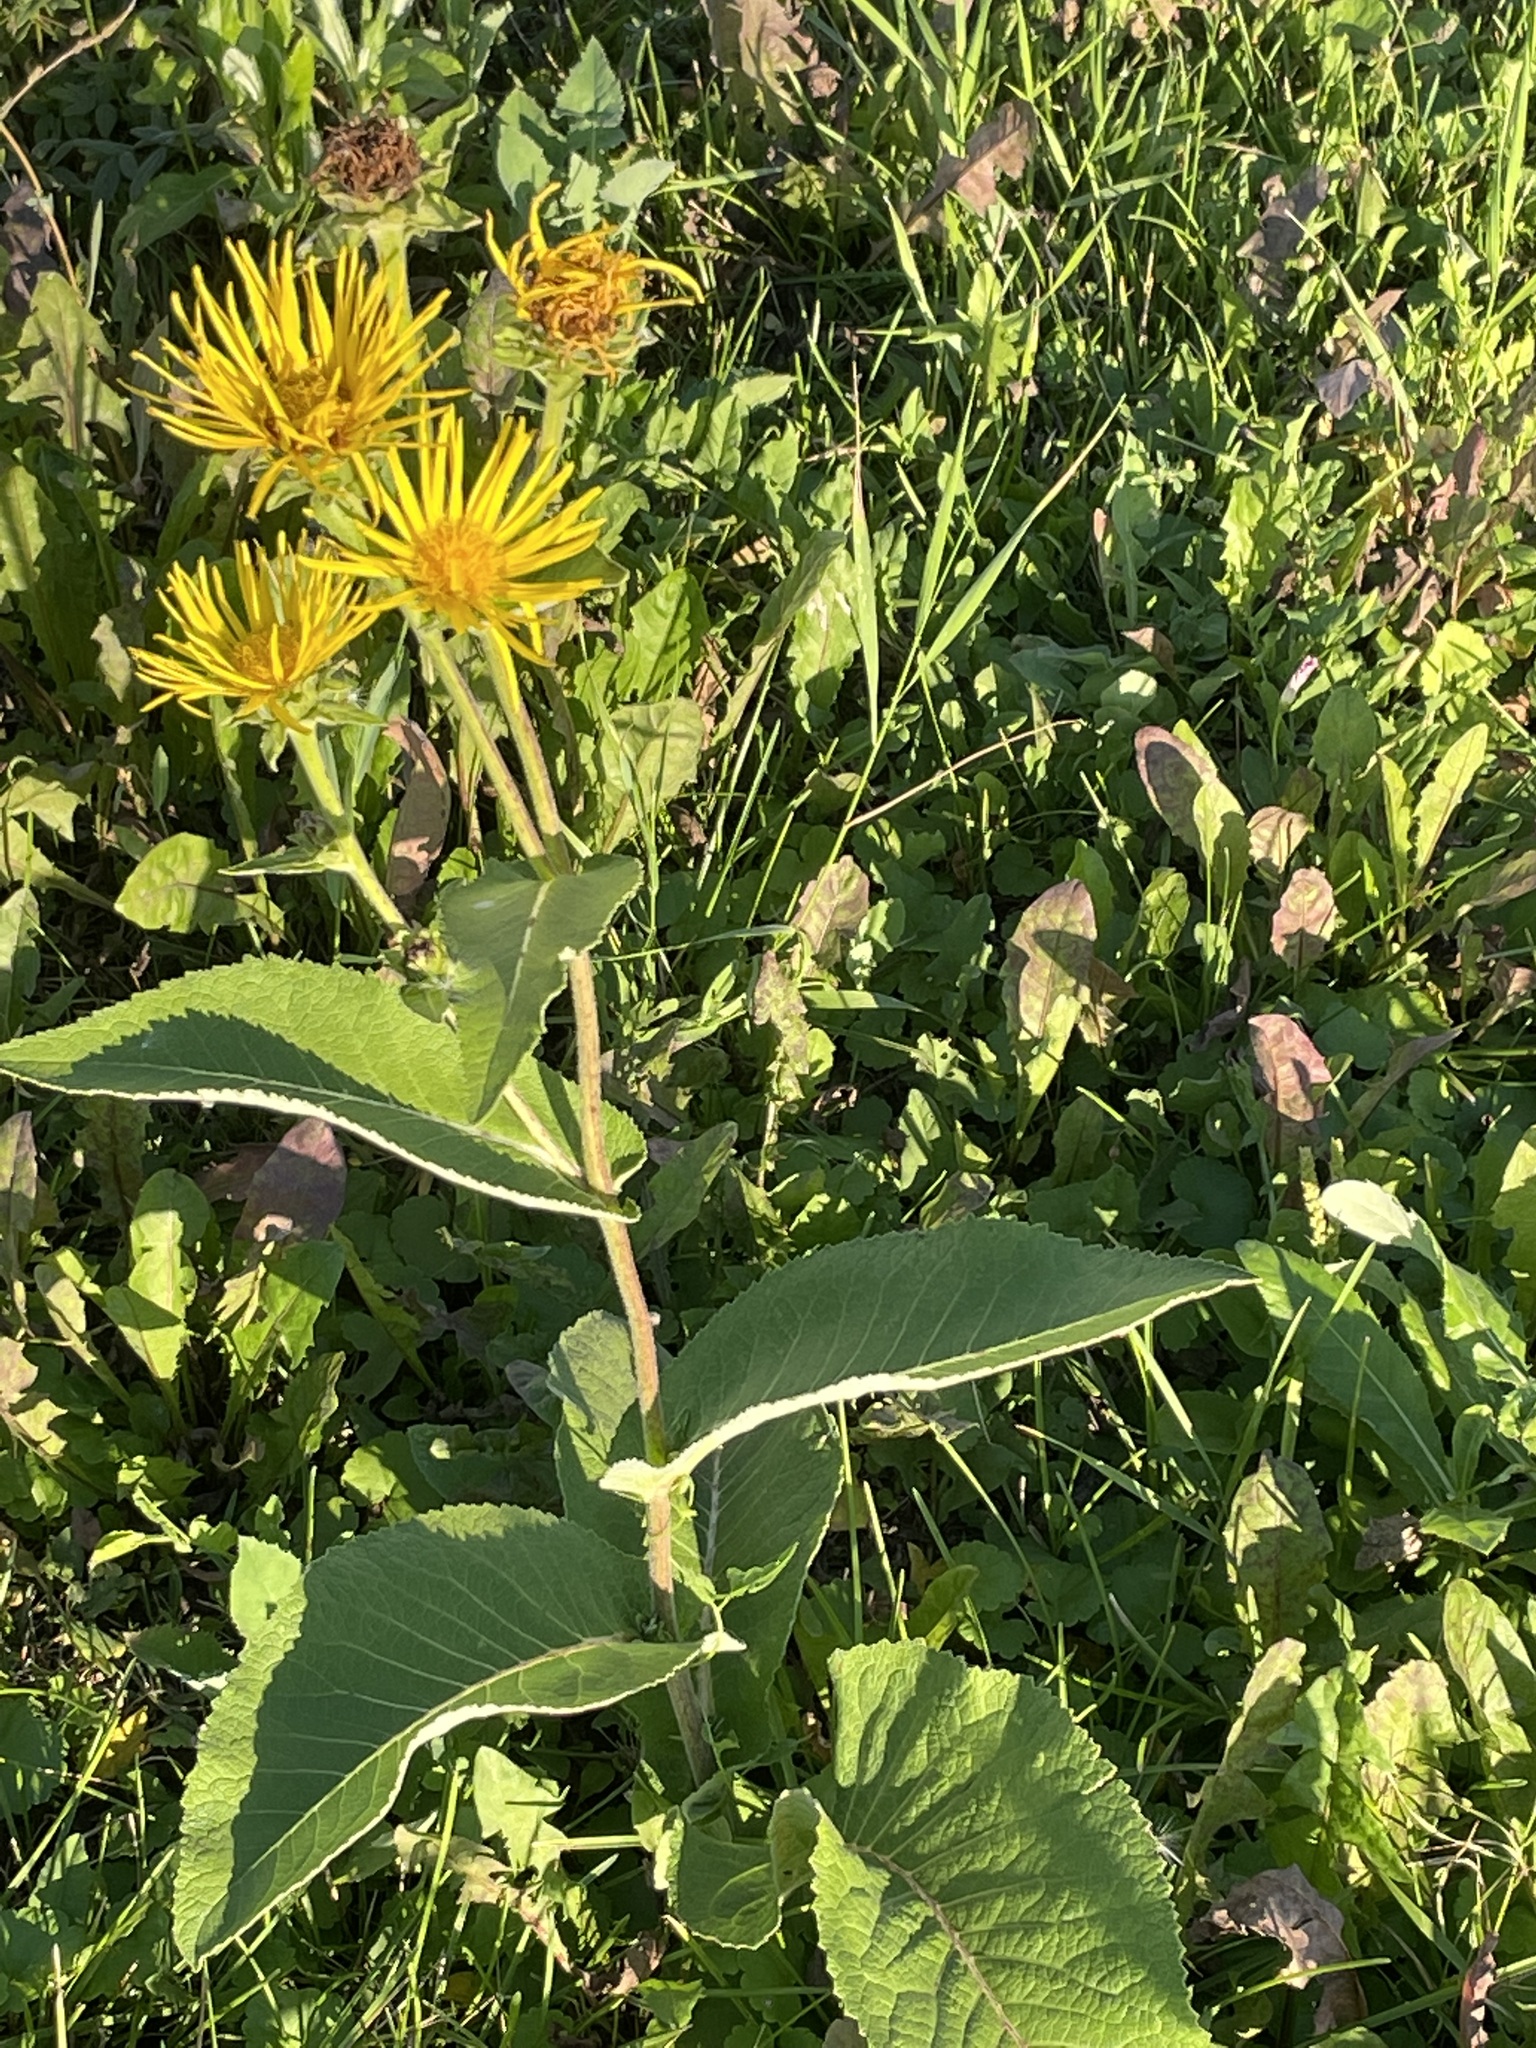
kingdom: Plantae
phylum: Tracheophyta
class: Magnoliopsida
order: Asterales
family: Asteraceae
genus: Inula
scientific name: Inula helenium
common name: Elecampane
